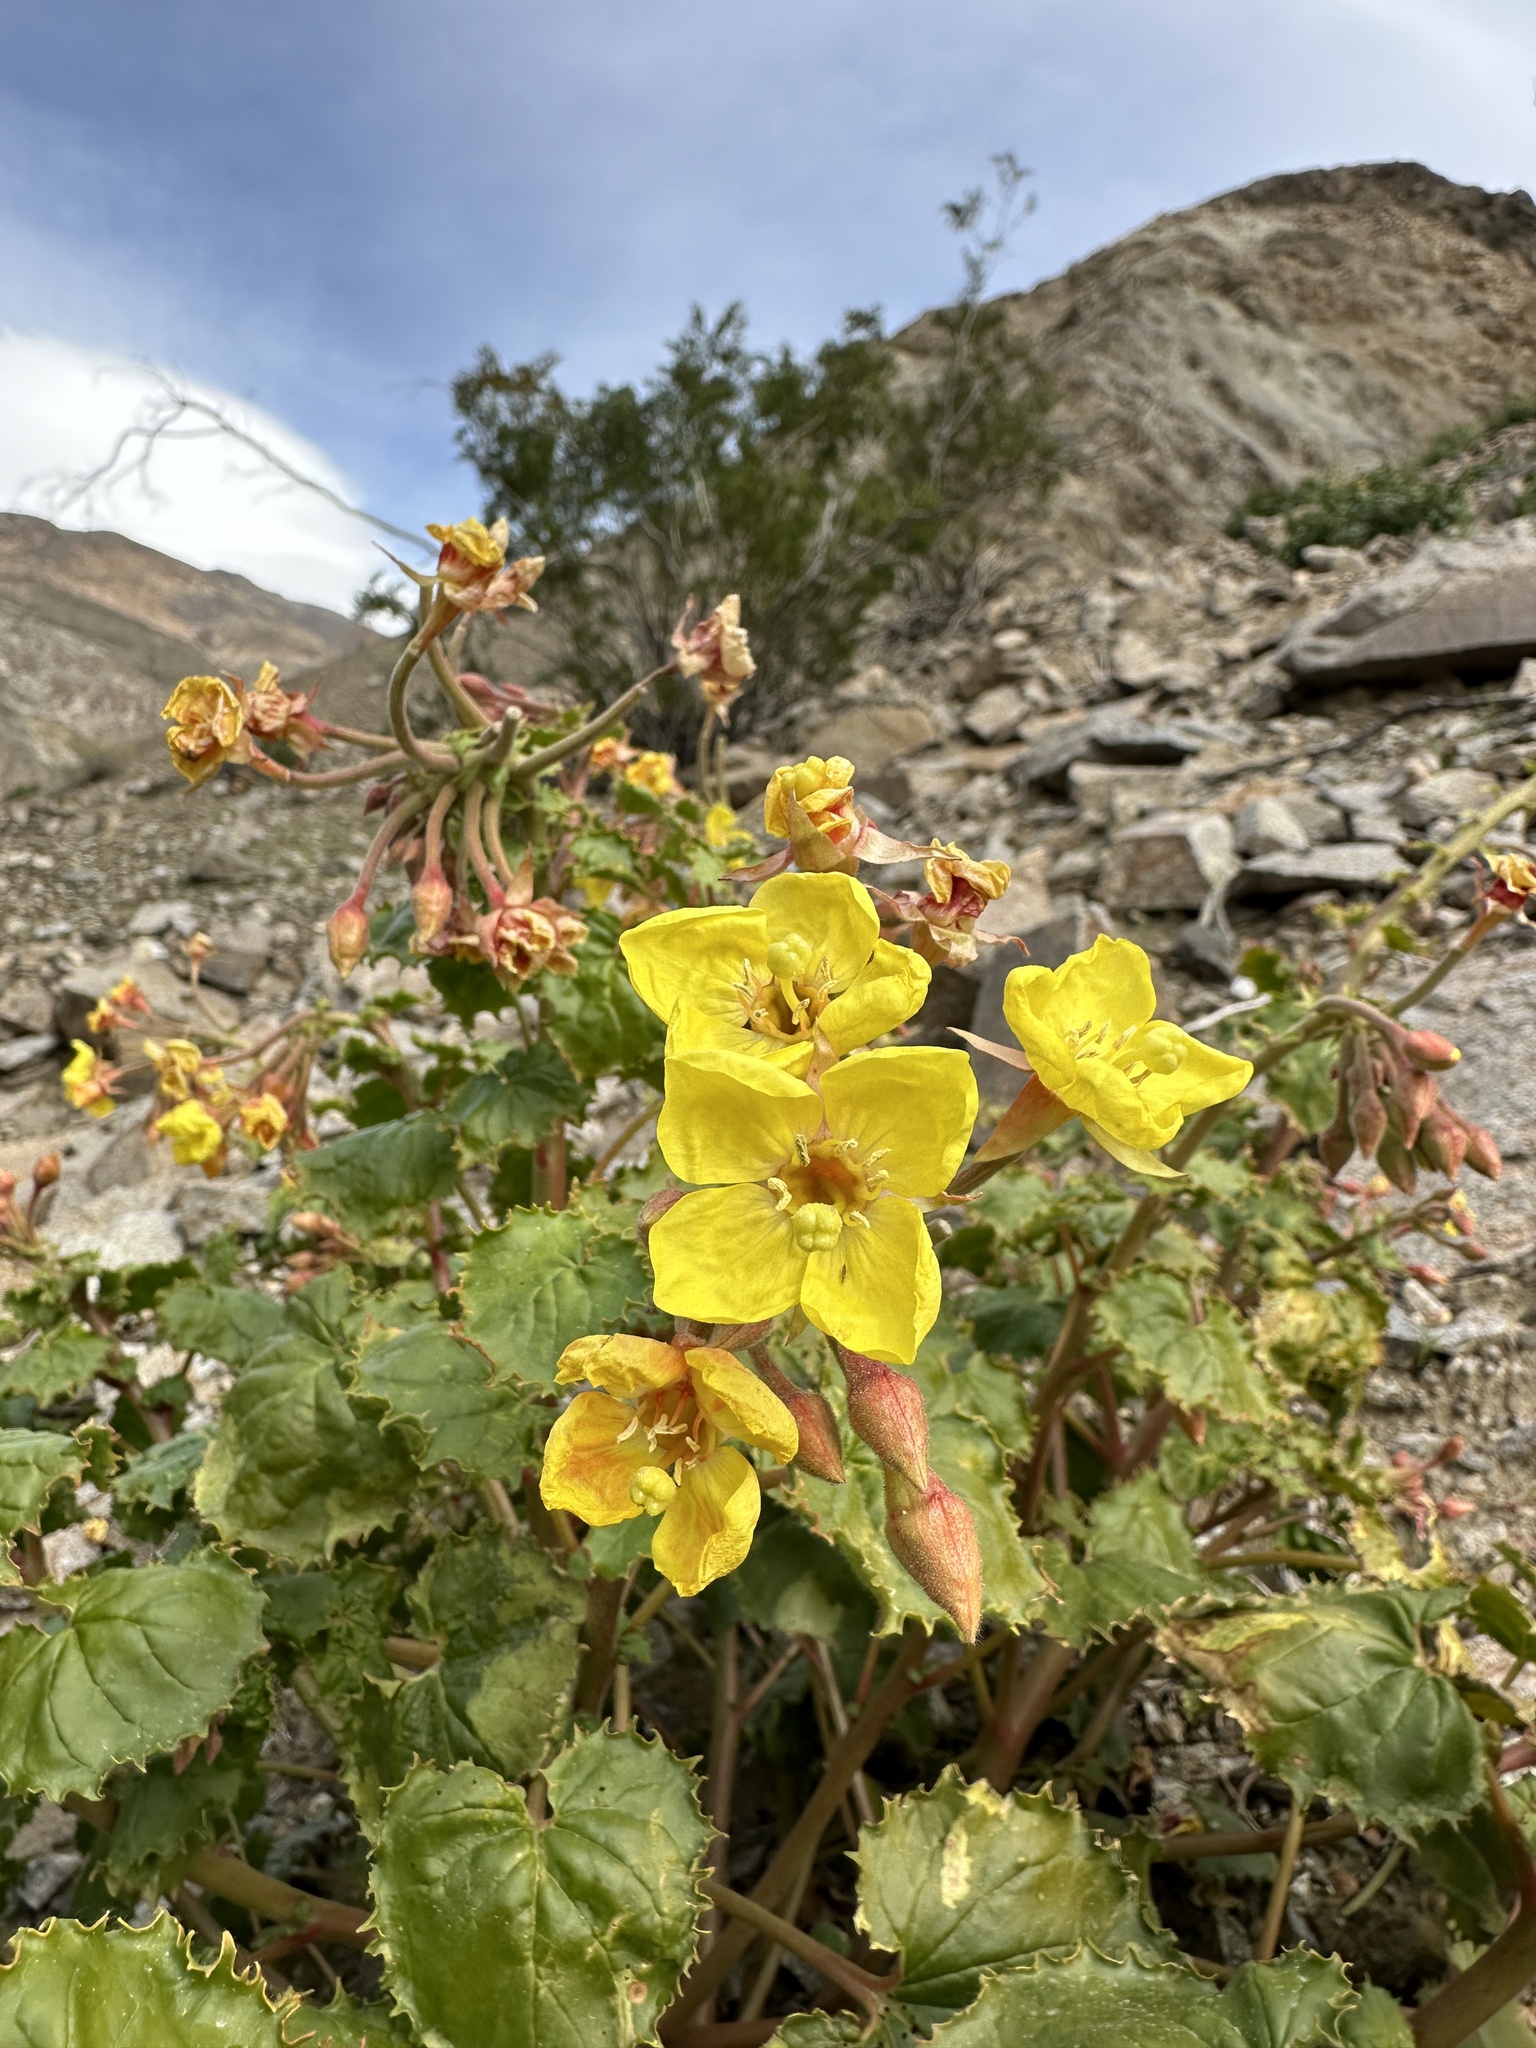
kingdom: Plantae
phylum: Tracheophyta
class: Magnoliopsida
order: Myrtales
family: Onagraceae
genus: Chylismia
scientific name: Chylismia cardiophylla
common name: Heartleaf suncup
